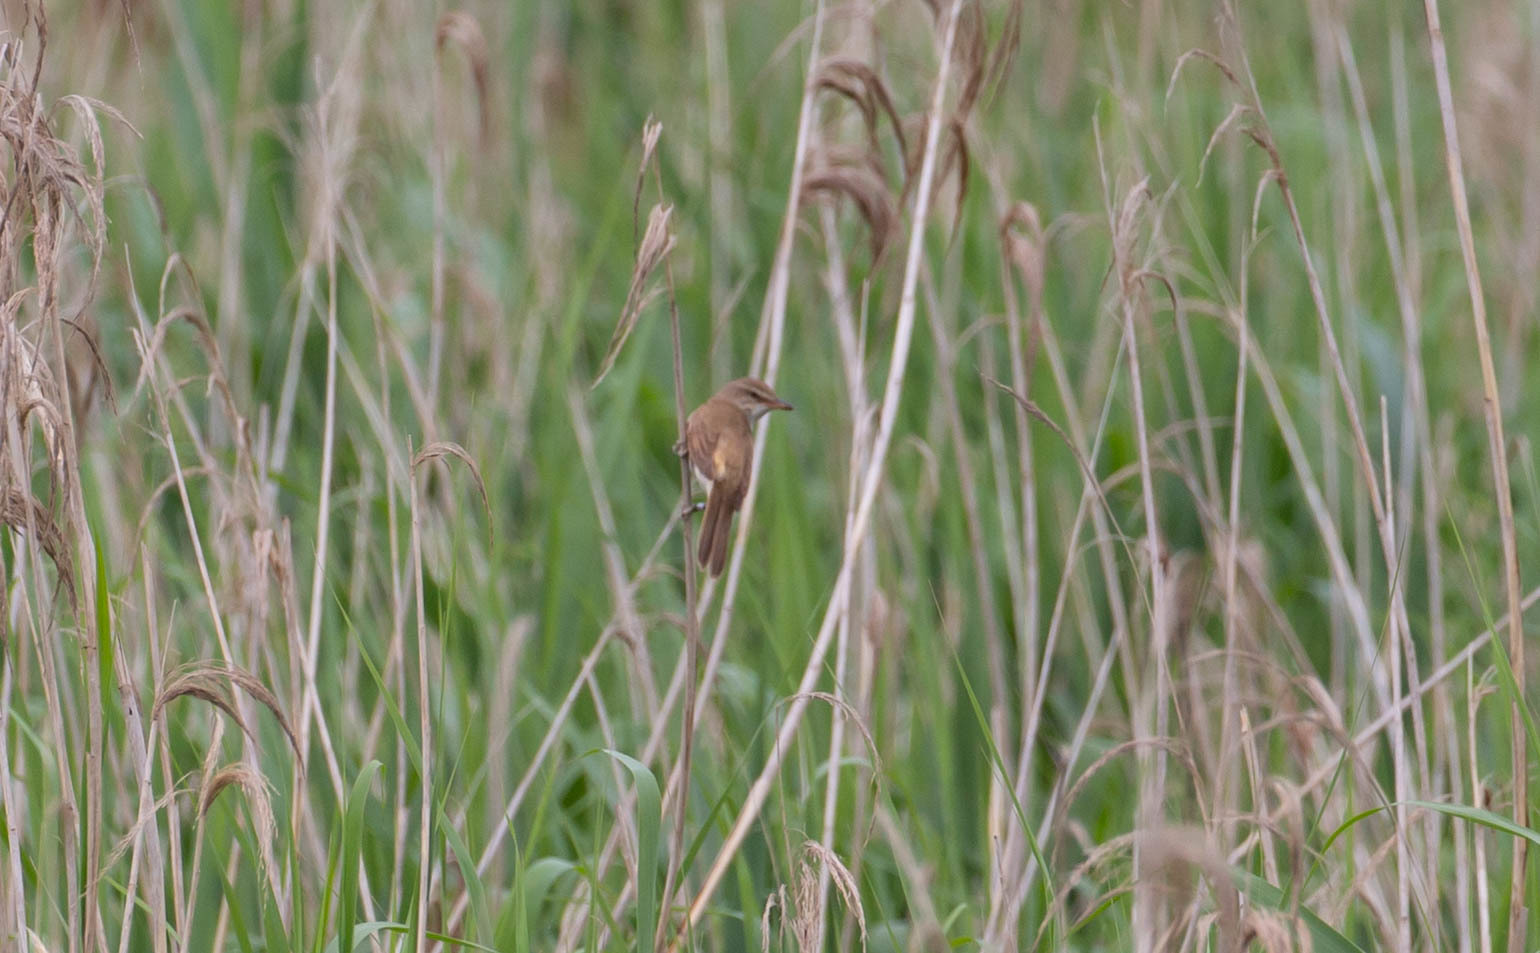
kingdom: Animalia
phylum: Chordata
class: Aves
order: Passeriformes
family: Acrocephalidae
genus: Acrocephalus
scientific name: Acrocephalus arundinaceus
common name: Great reed warbler
